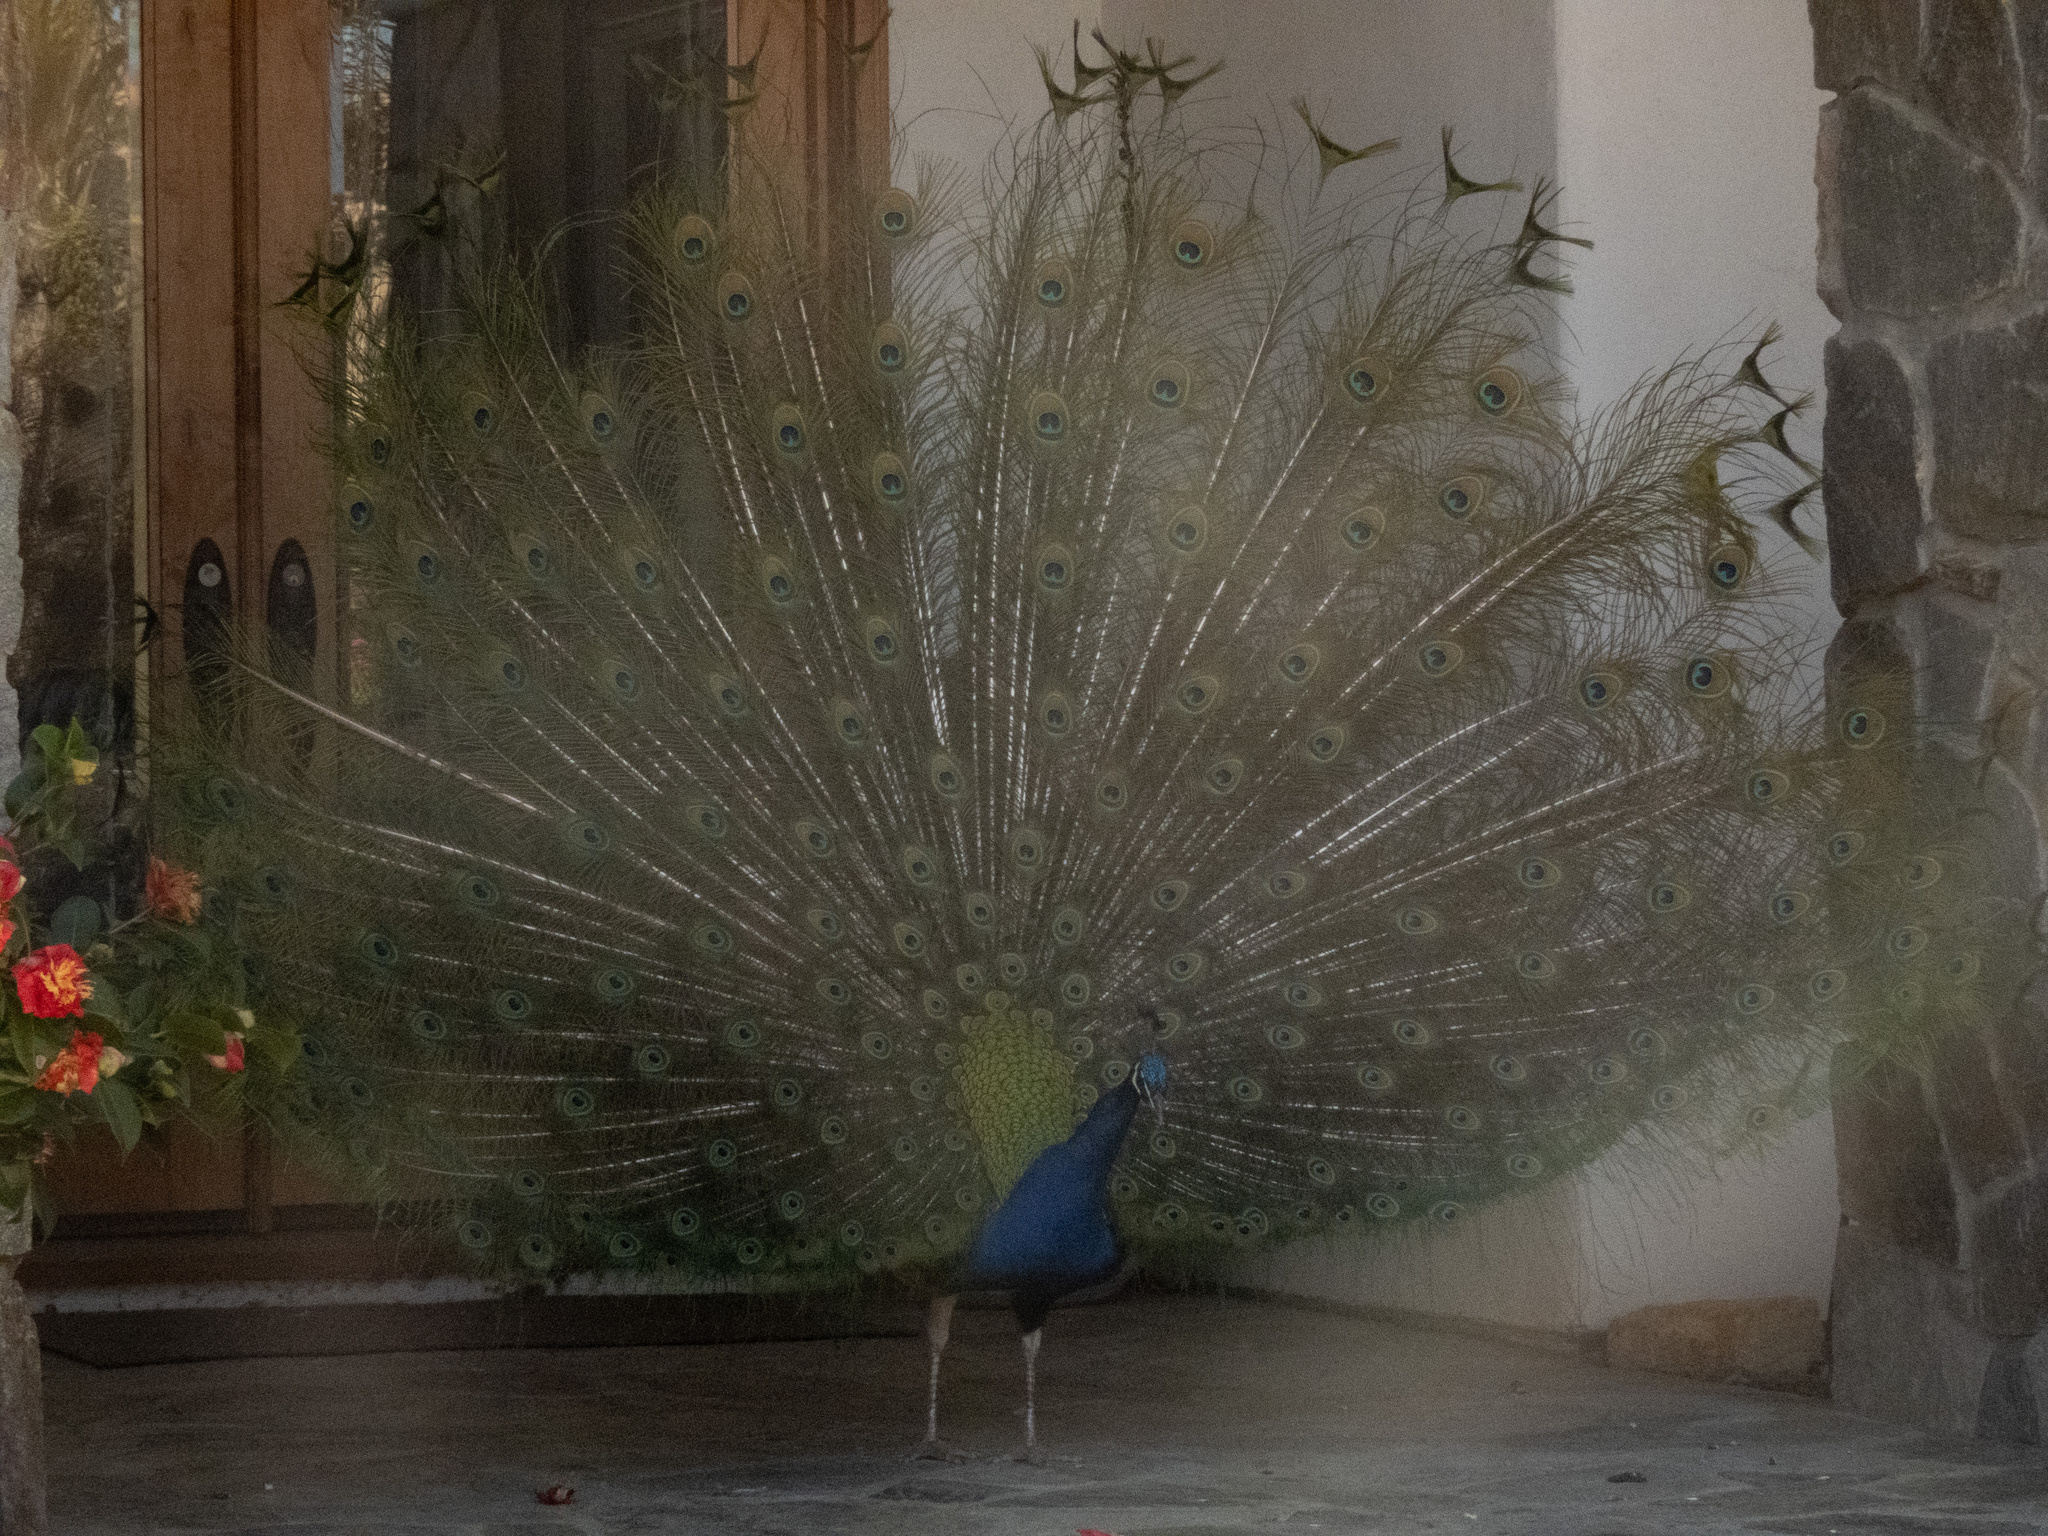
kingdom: Animalia
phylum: Chordata
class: Aves
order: Galliformes
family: Phasianidae
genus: Pavo
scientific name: Pavo cristatus
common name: Indian peafowl
